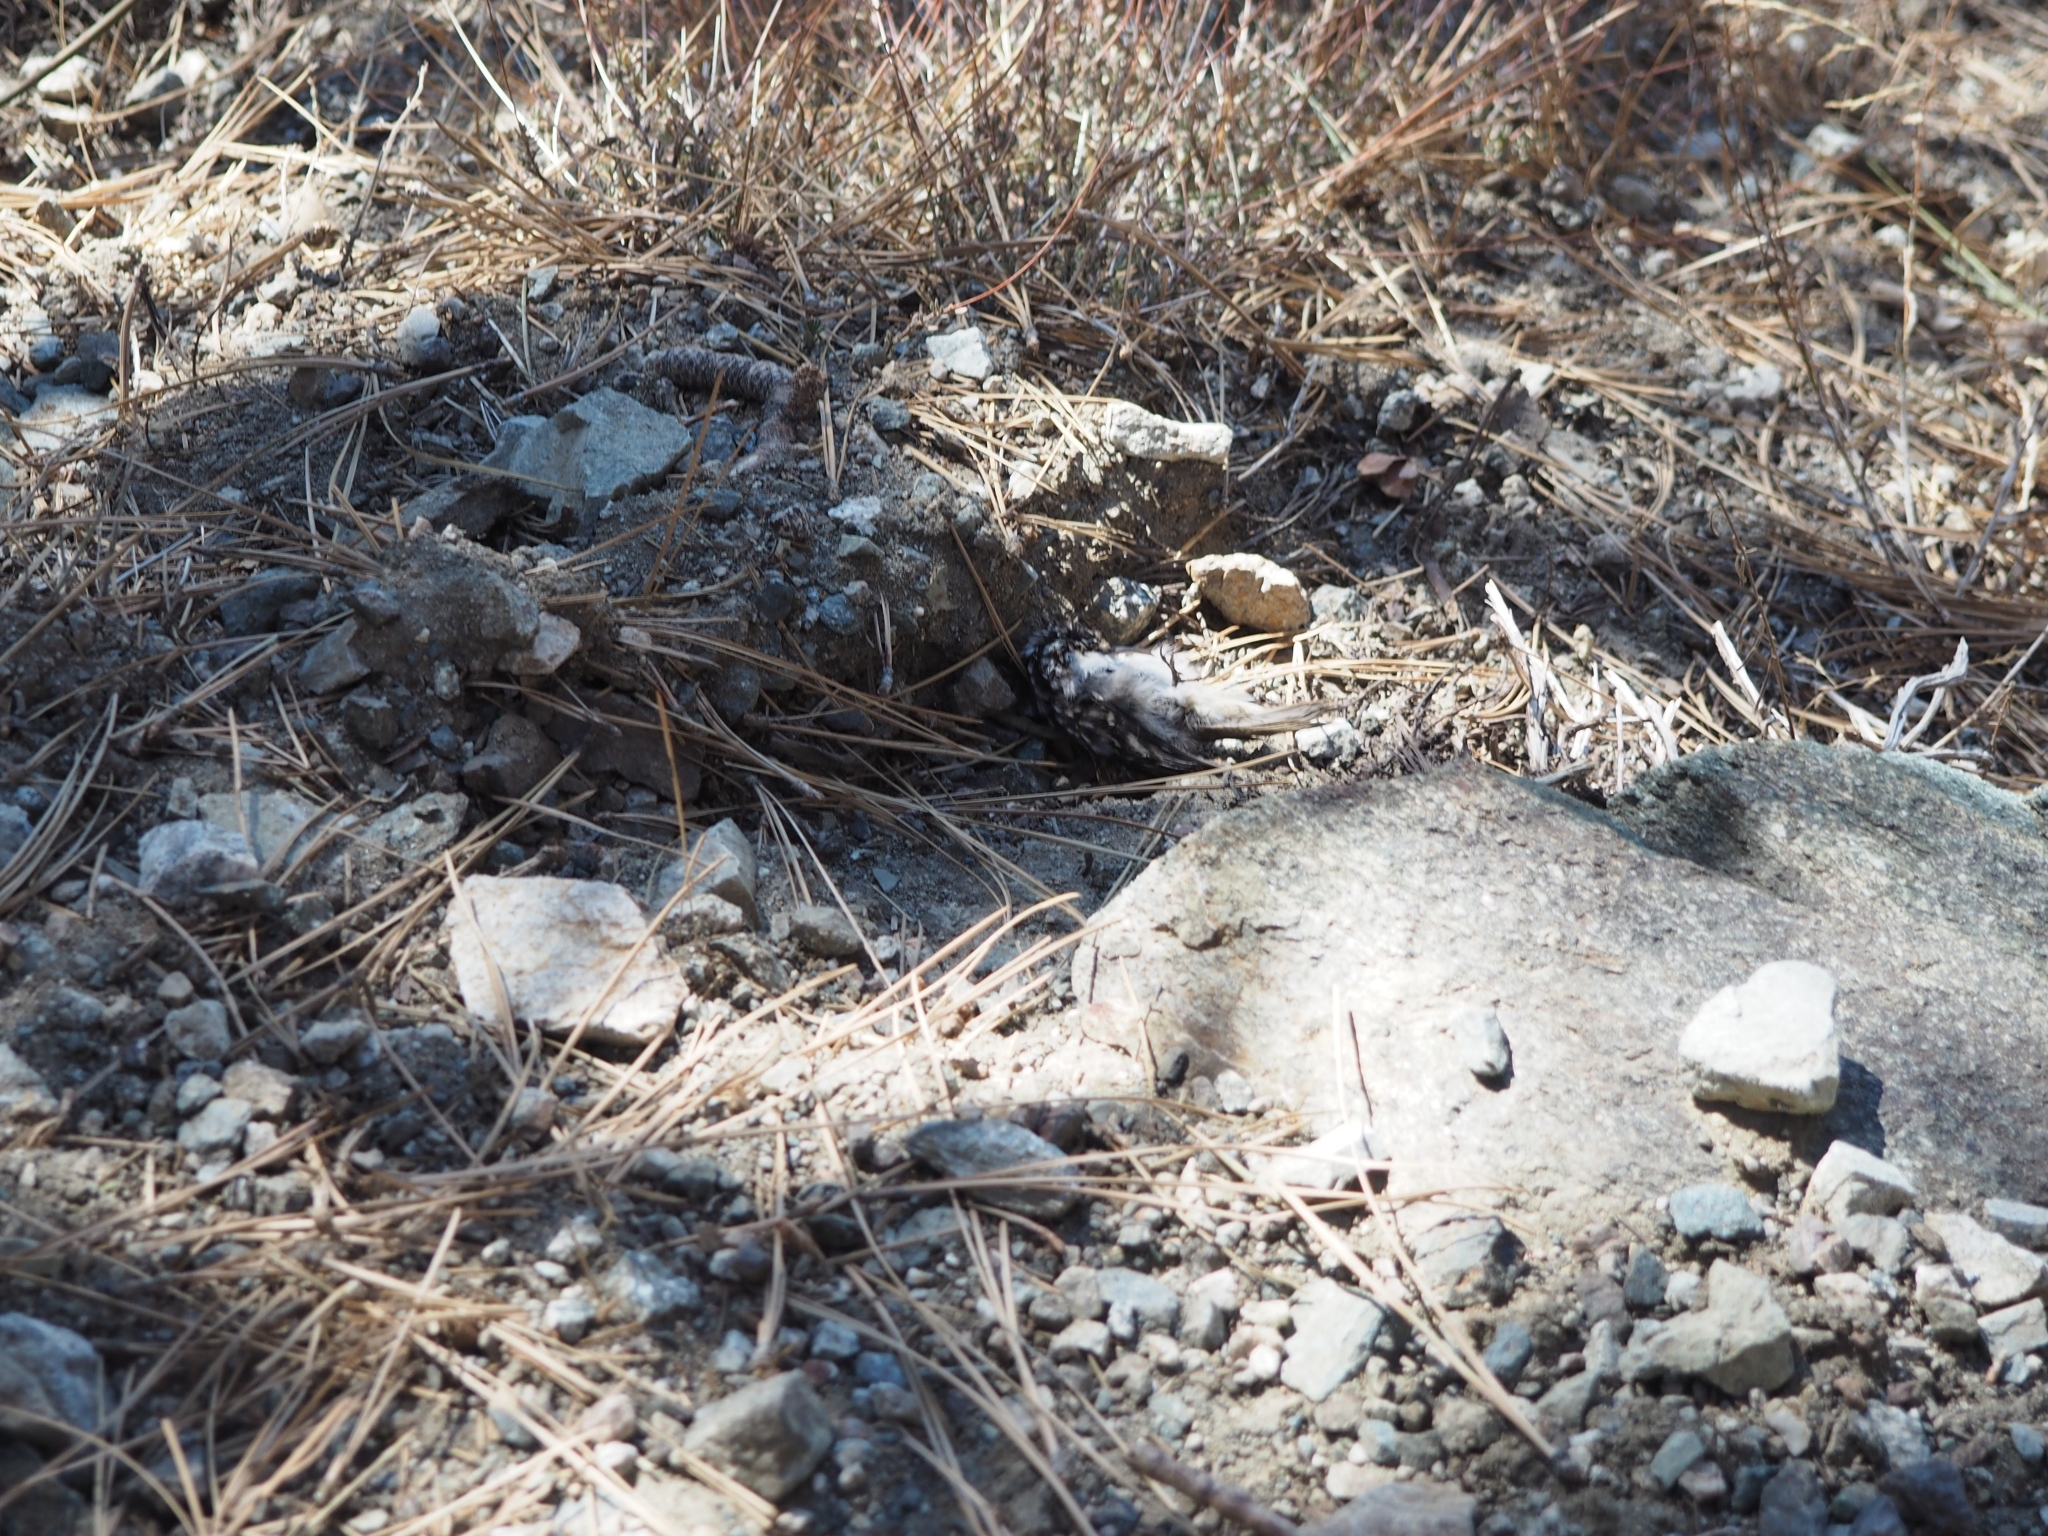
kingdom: Animalia
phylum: Chordata
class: Aves
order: Passeriformes
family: Certhiidae
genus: Certhia
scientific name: Certhia americana
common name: Brown creeper
